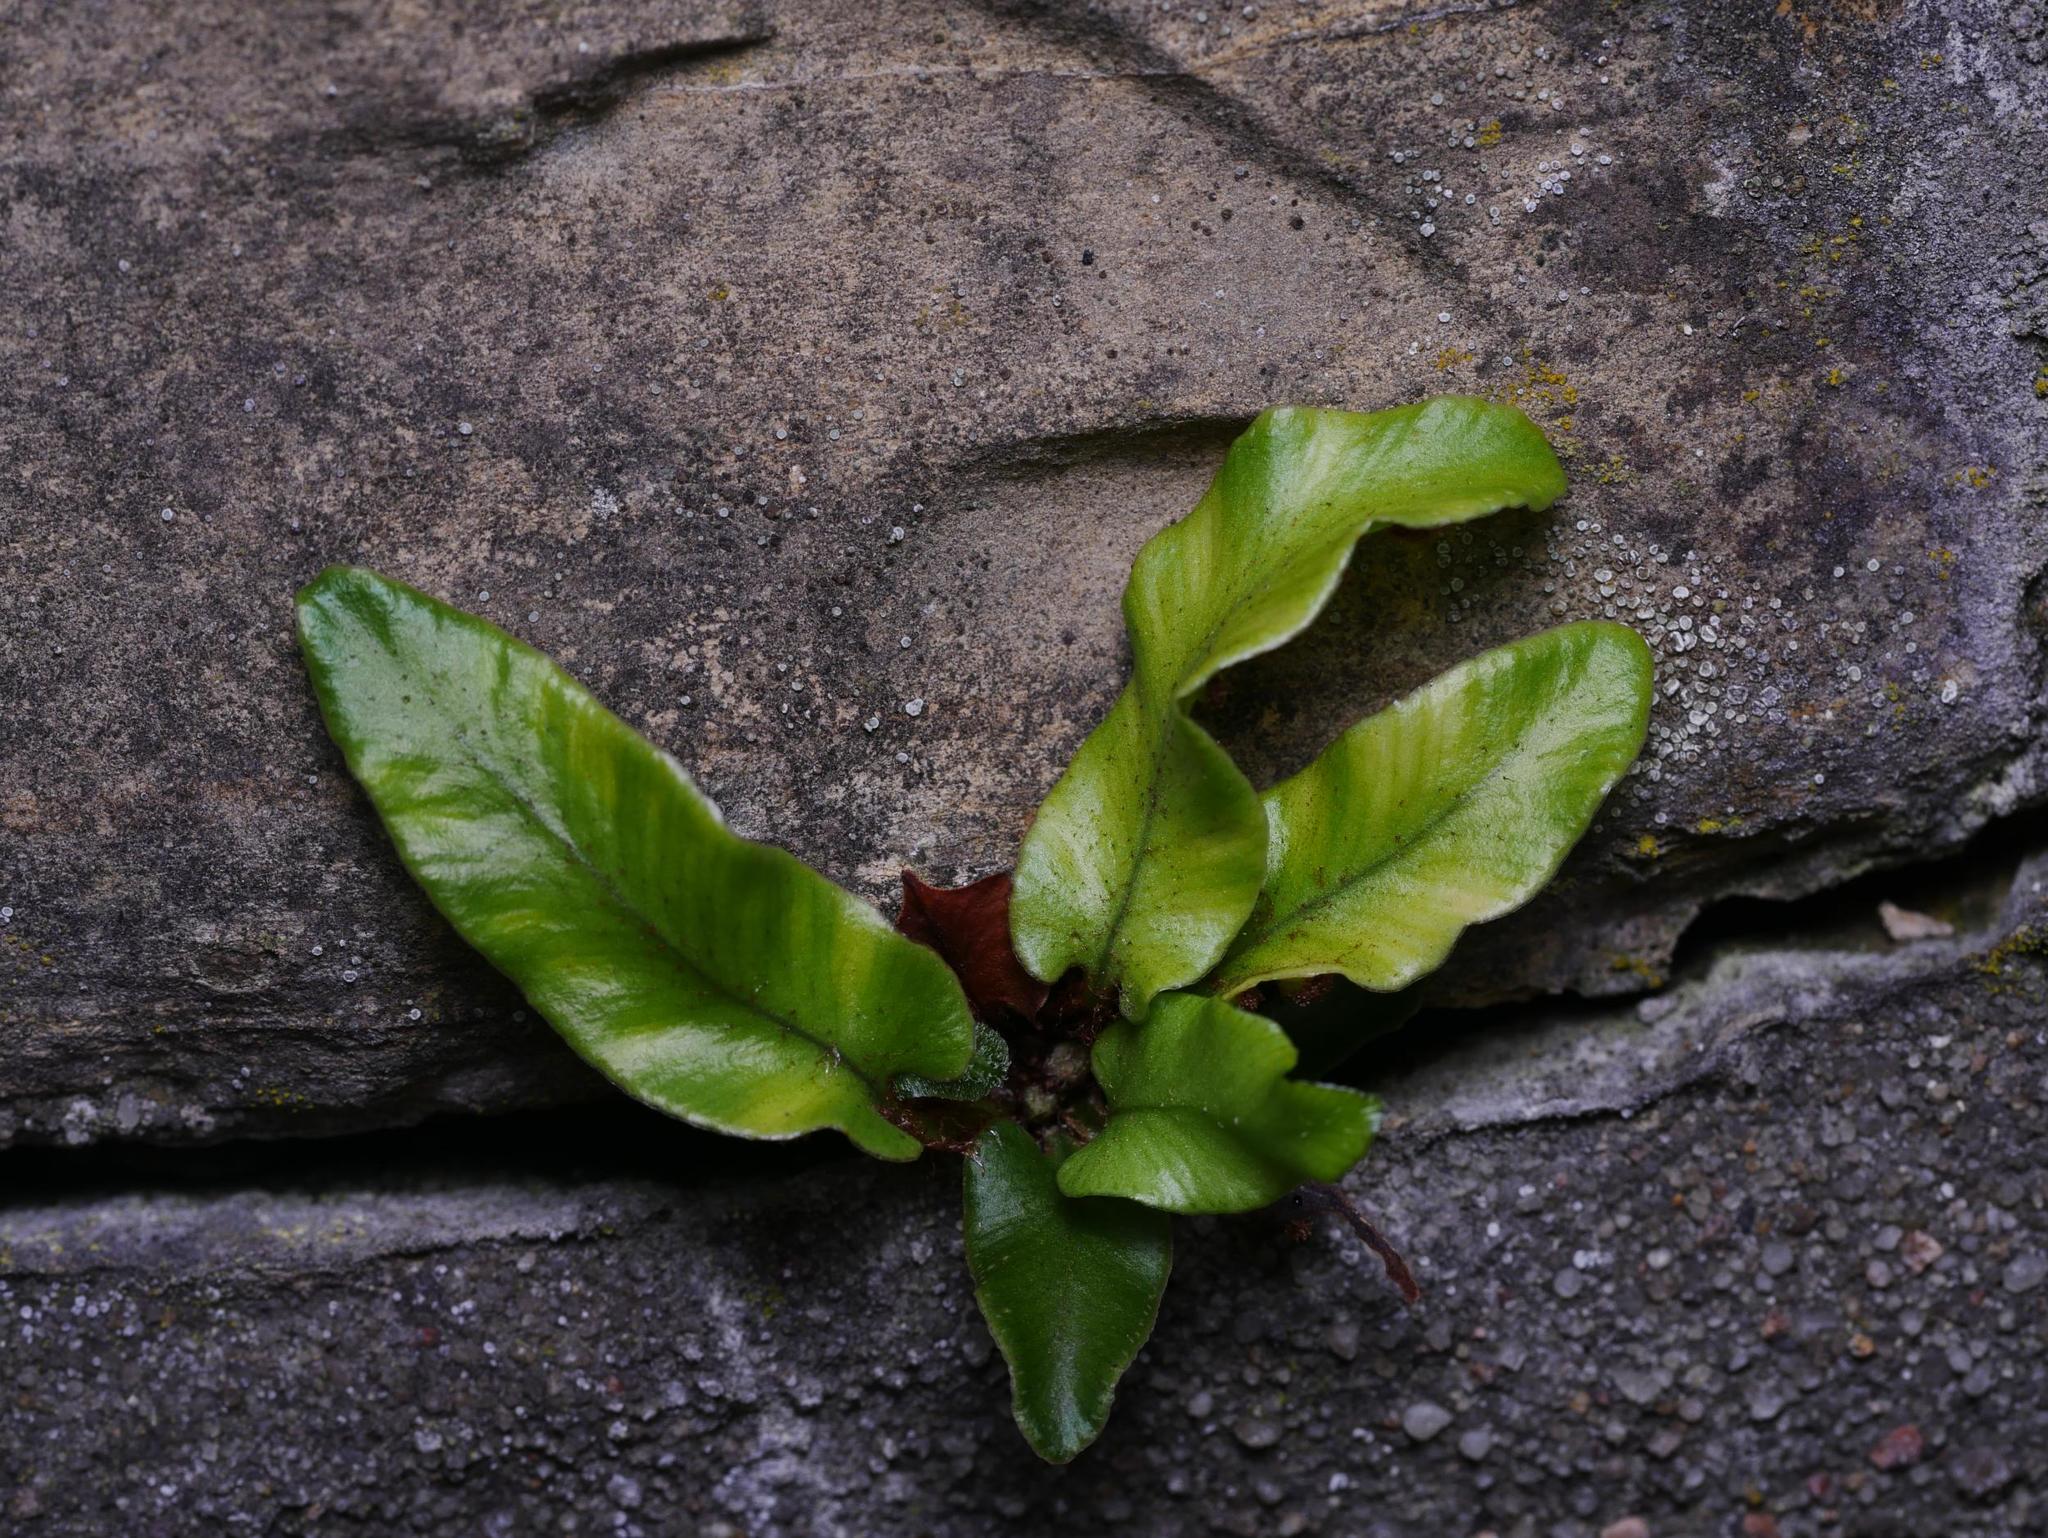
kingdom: Plantae
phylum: Tracheophyta
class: Polypodiopsida
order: Polypodiales
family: Aspleniaceae
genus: Asplenium
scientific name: Asplenium scolopendrium
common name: Hart's-tongue fern
